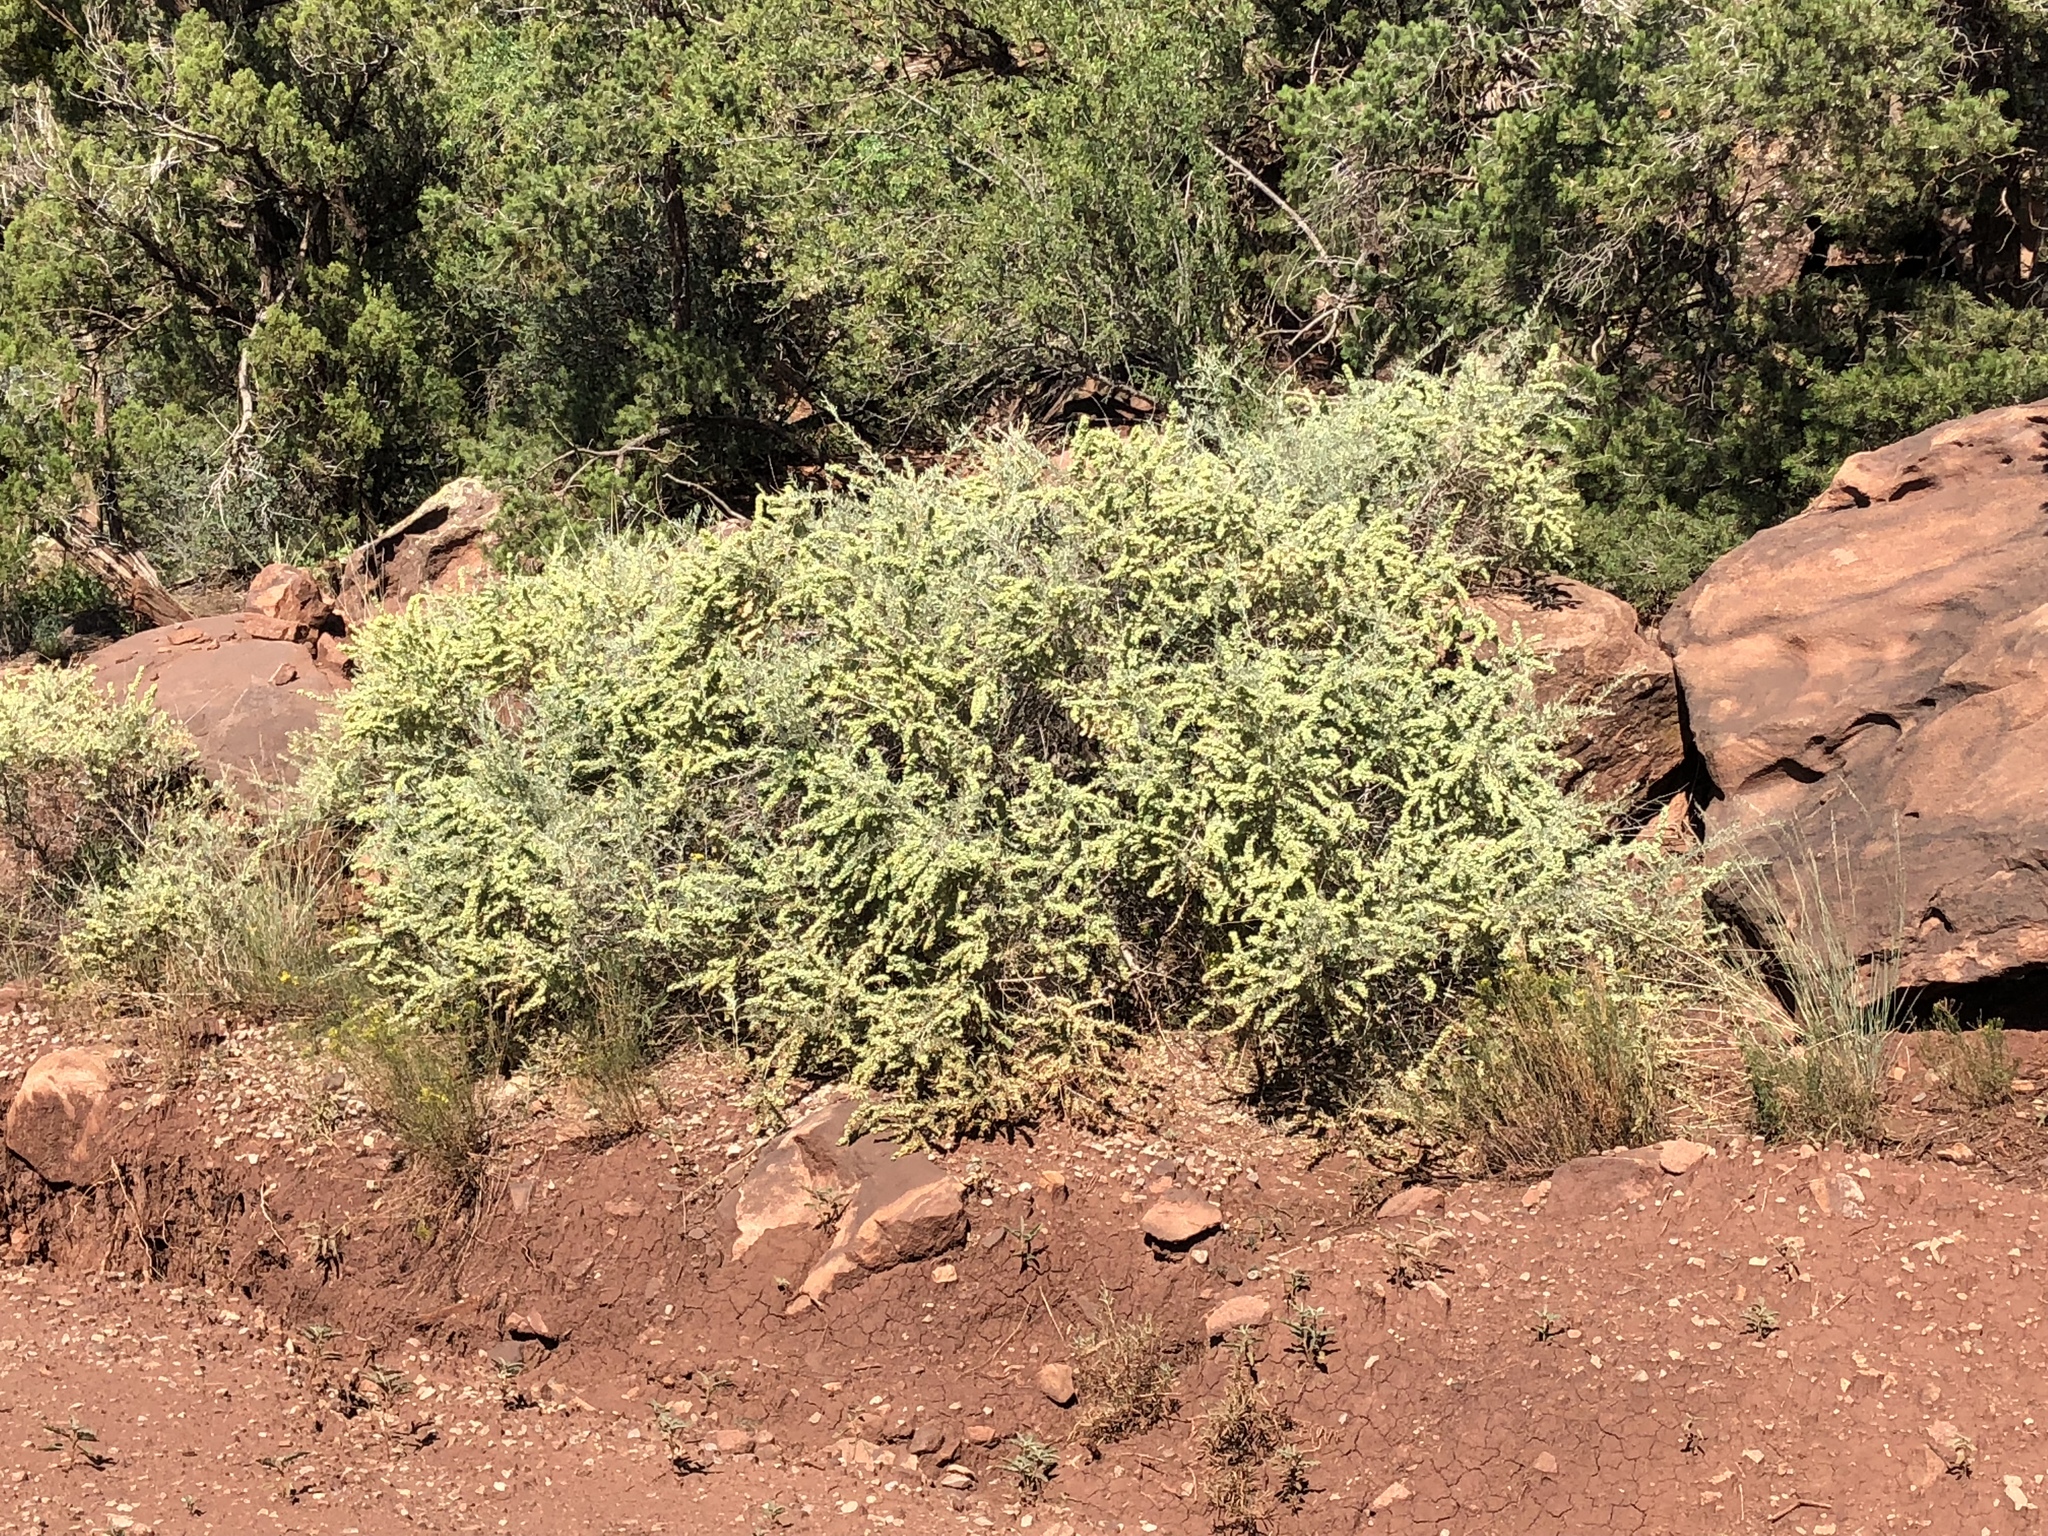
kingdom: Plantae
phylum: Tracheophyta
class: Magnoliopsida
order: Caryophyllales
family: Amaranthaceae
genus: Atriplex
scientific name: Atriplex canescens
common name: Four-wing saltbush
